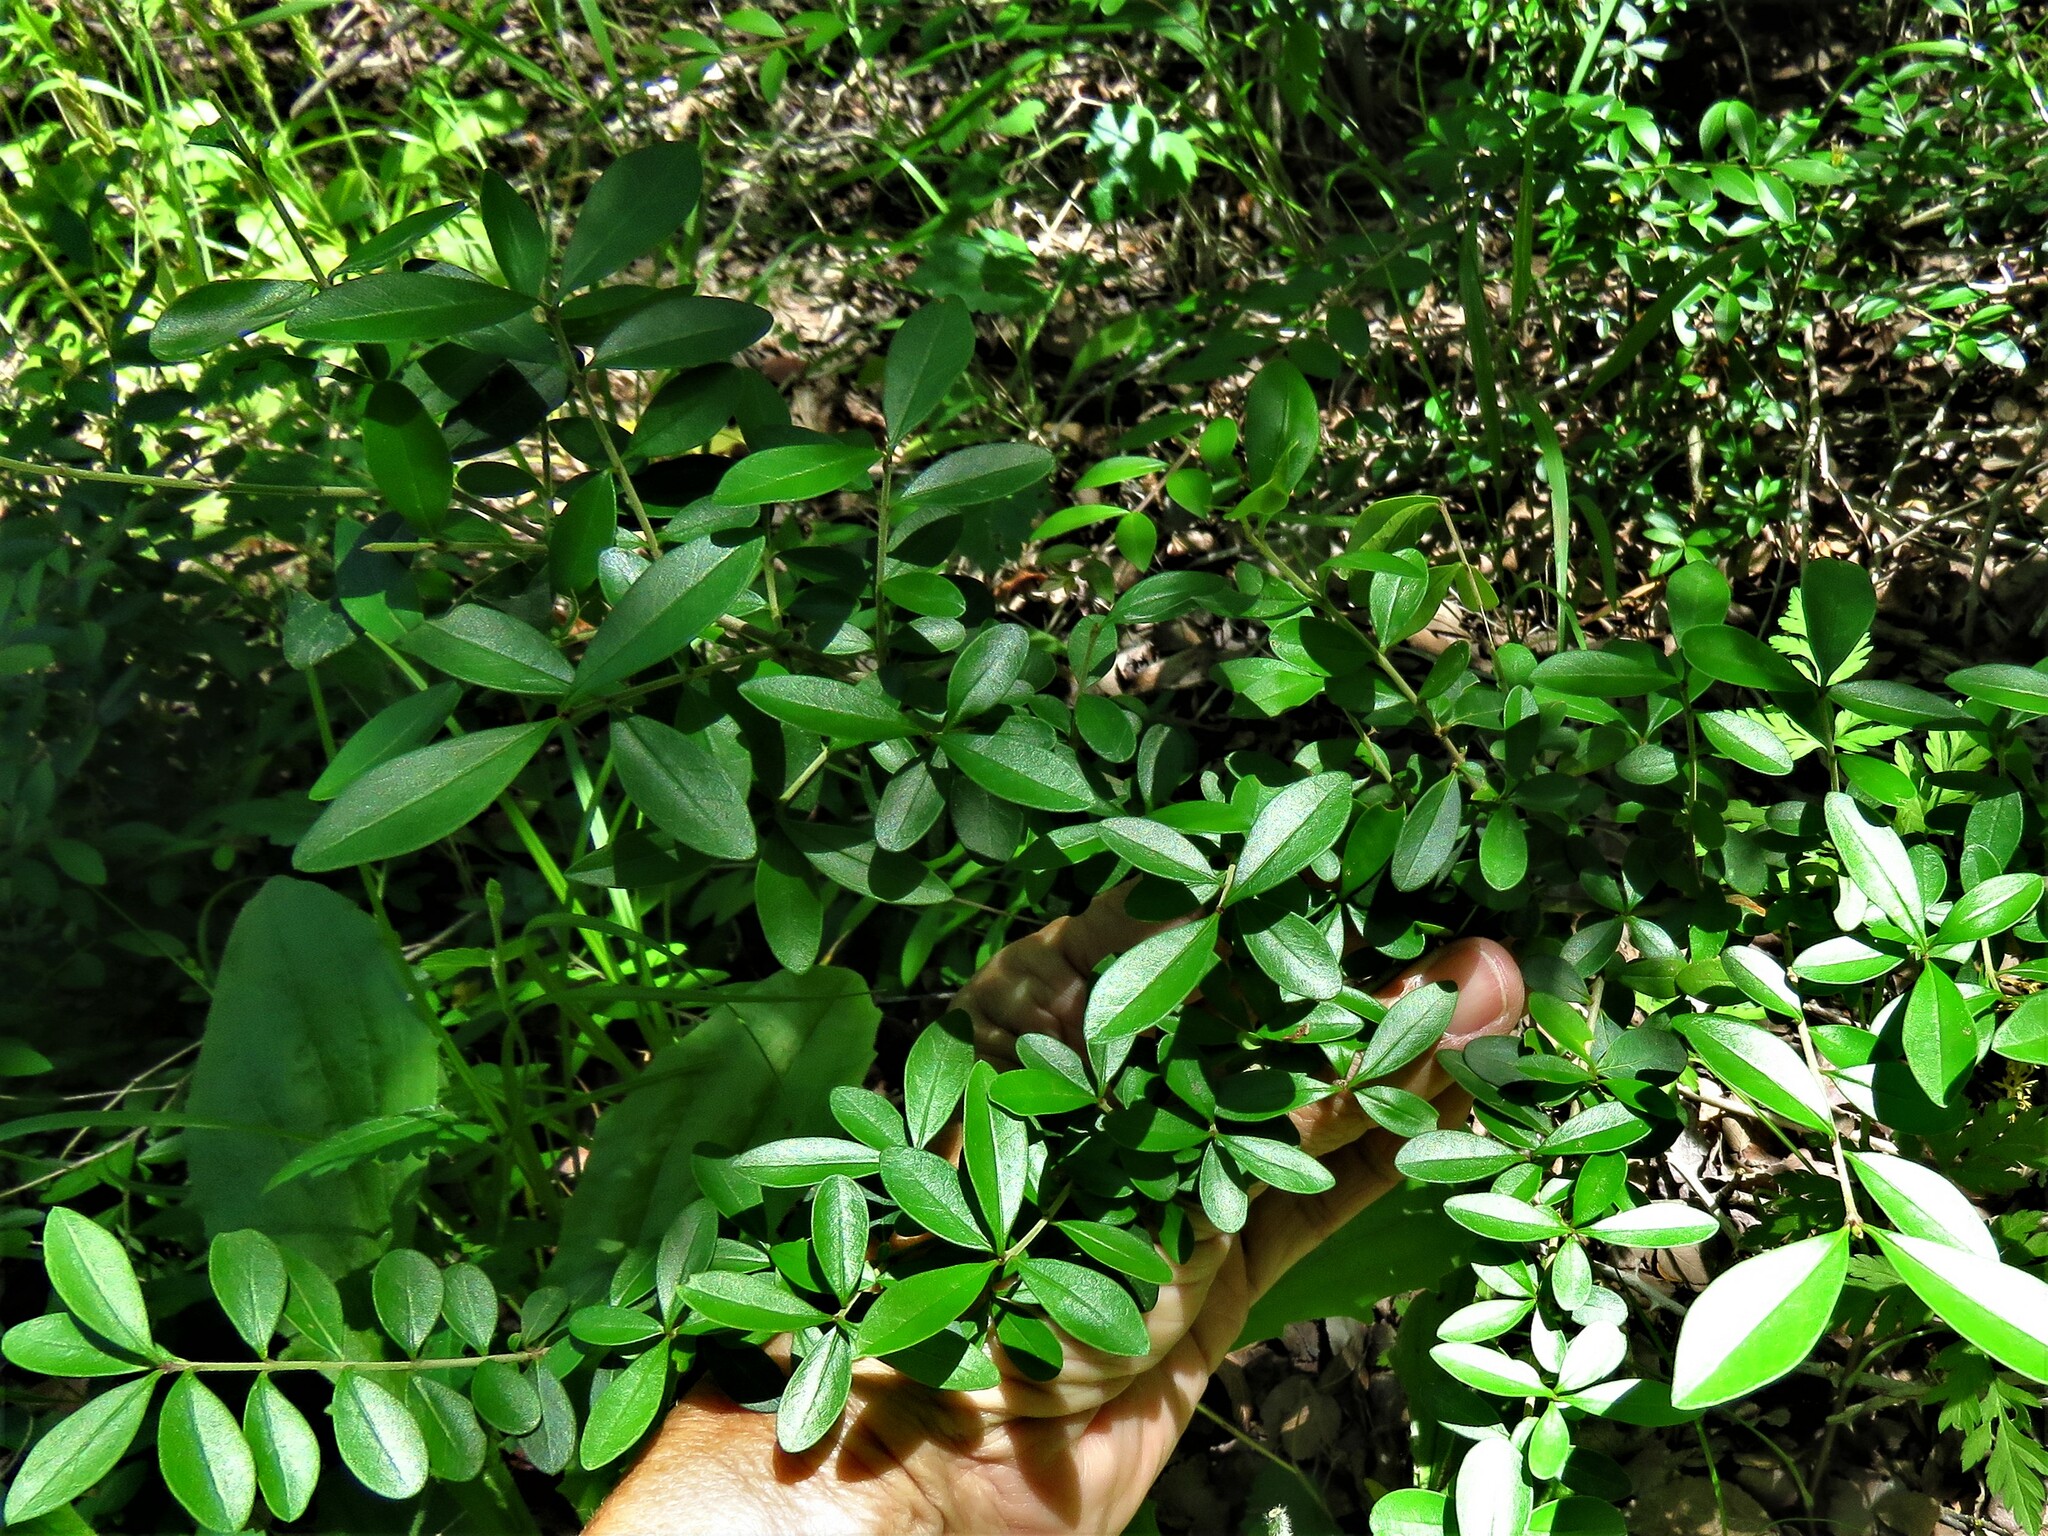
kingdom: Plantae
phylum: Tracheophyta
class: Magnoliopsida
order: Lamiales
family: Oleaceae
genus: Ligustrum
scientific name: Ligustrum quihoui
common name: Waxyleaf privet
